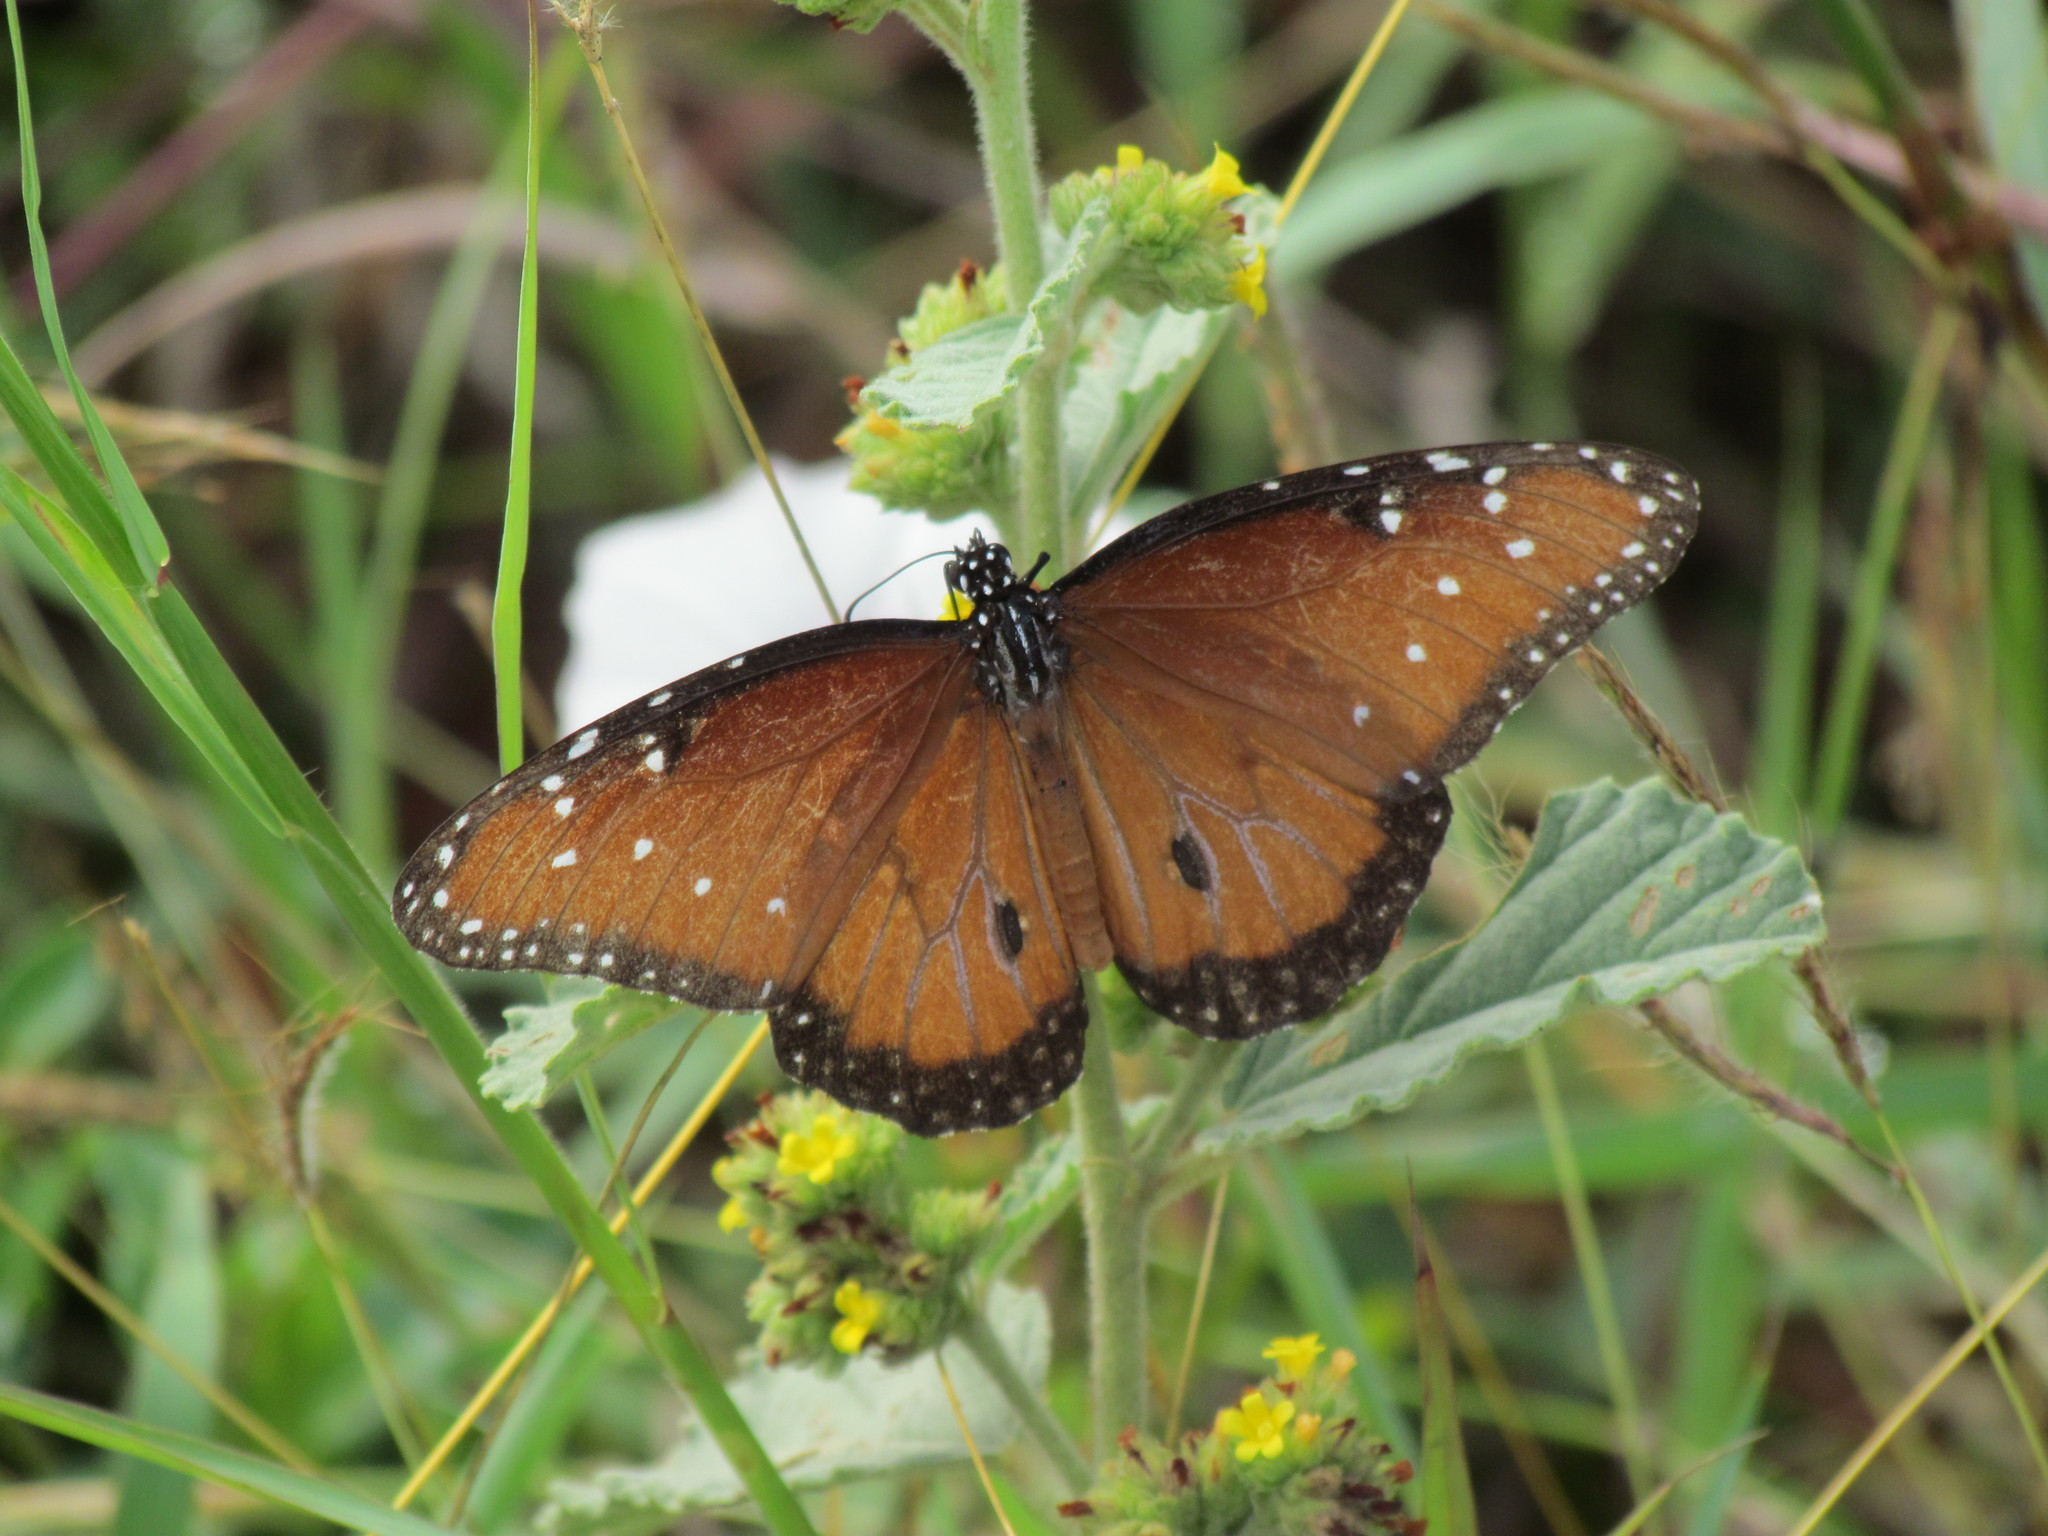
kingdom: Animalia
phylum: Arthropoda
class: Insecta
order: Lepidoptera
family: Nymphalidae
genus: Danaus
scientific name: Danaus gilippus
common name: Queen
